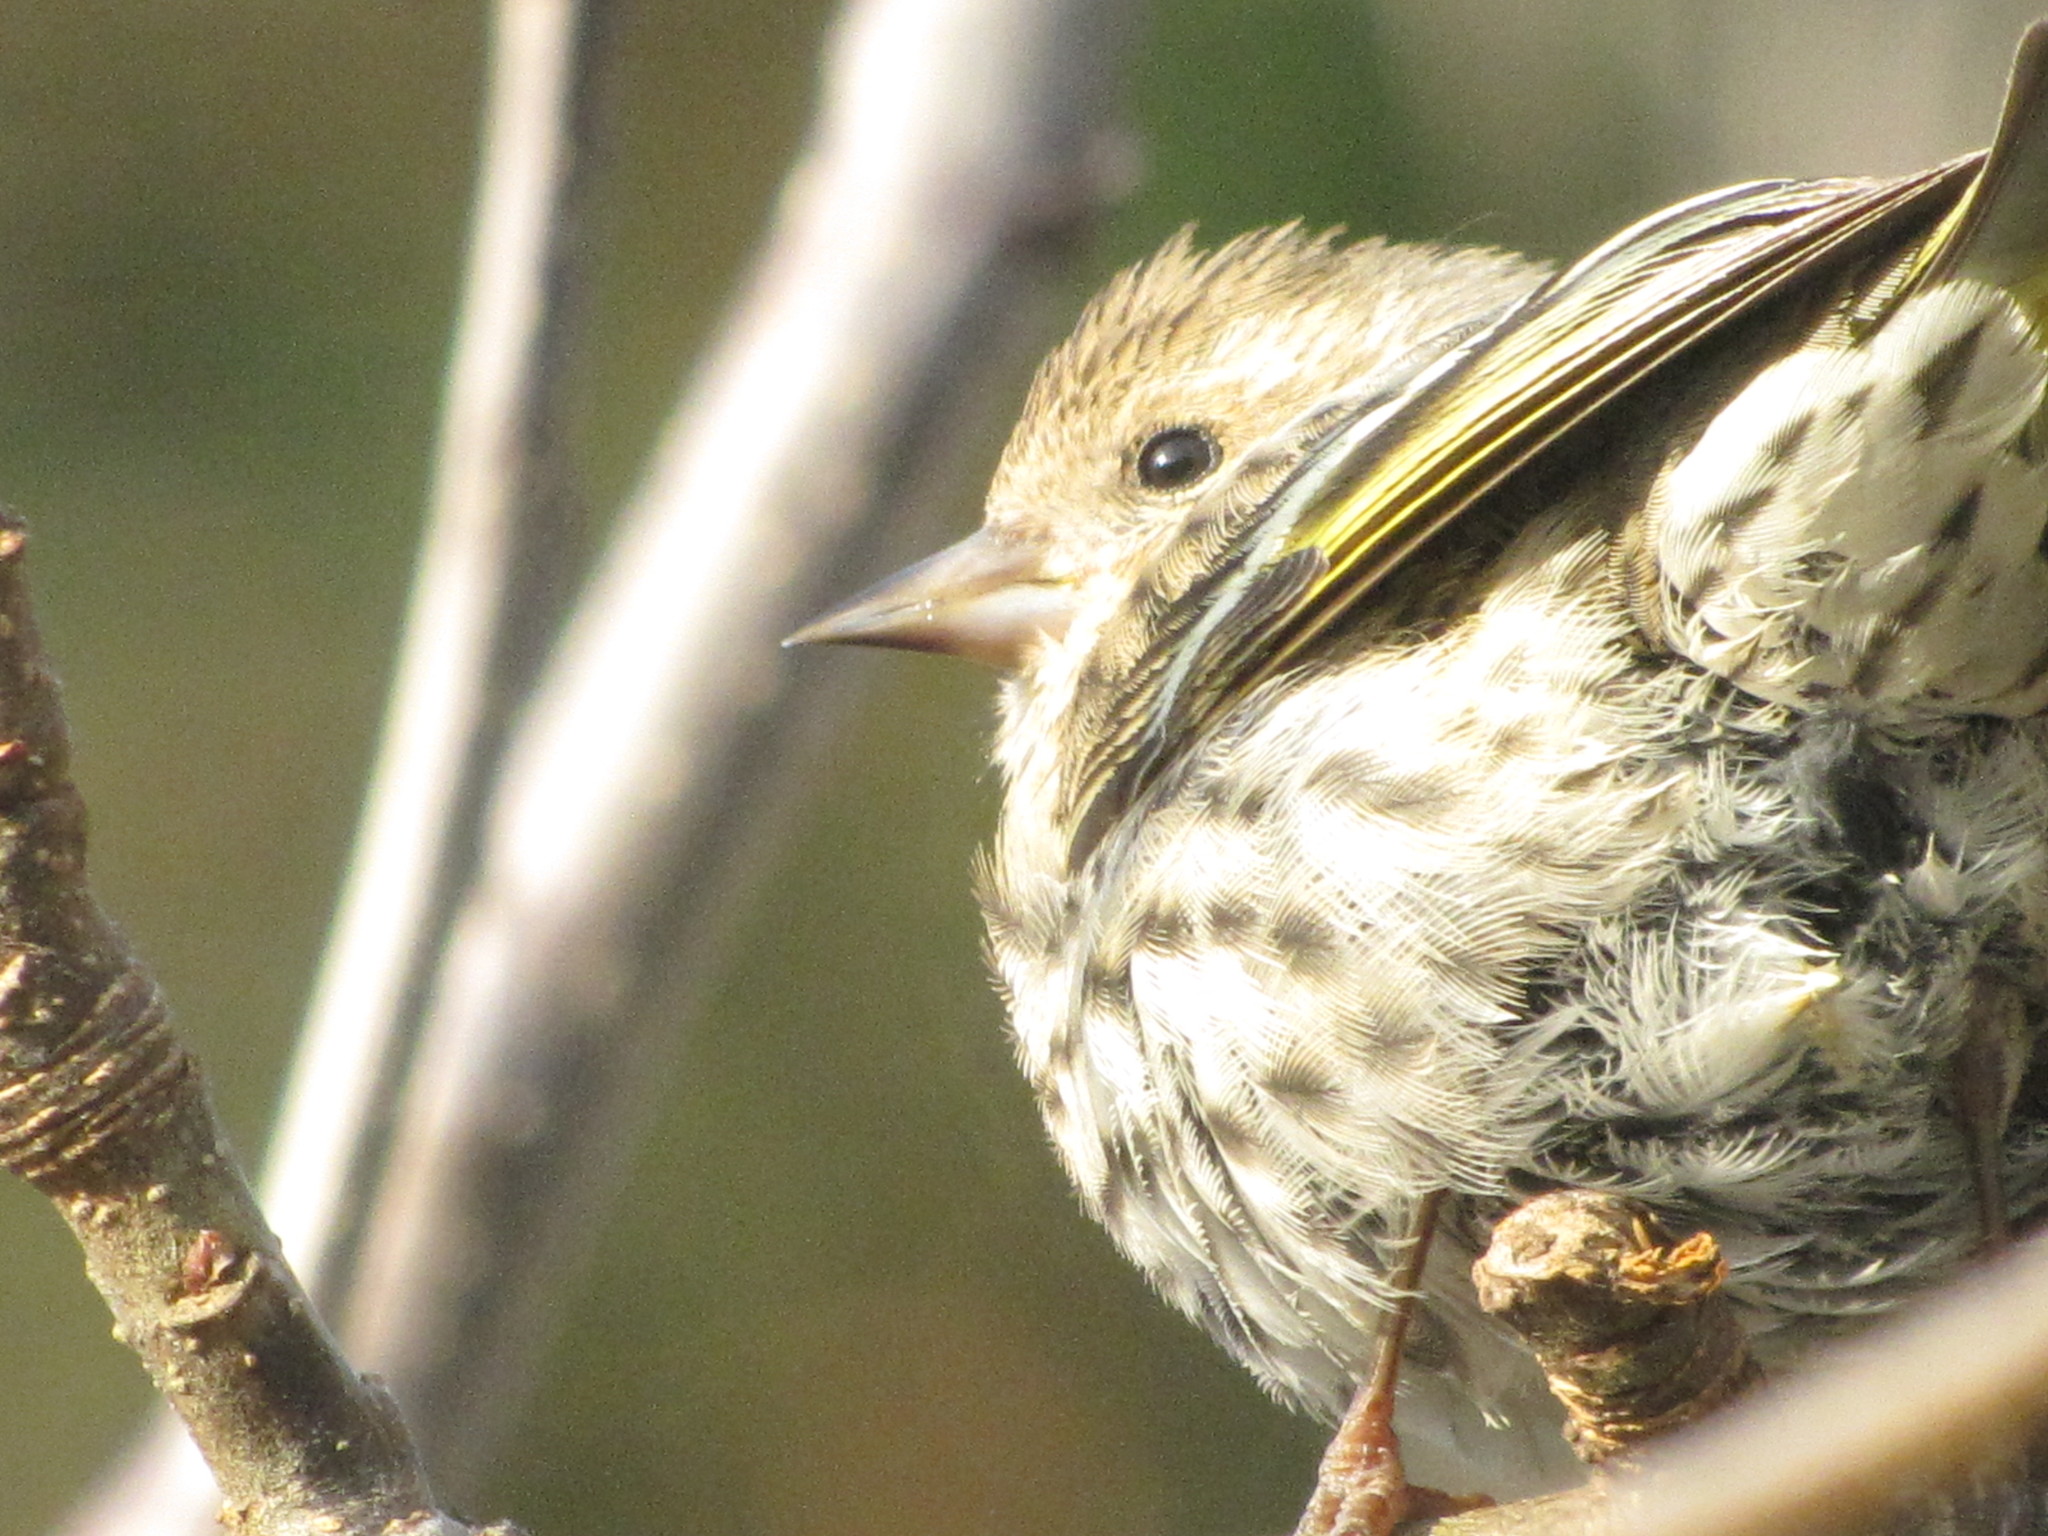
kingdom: Animalia
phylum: Chordata
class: Aves
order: Passeriformes
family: Fringillidae
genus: Spinus
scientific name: Spinus pinus
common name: Pine siskin
